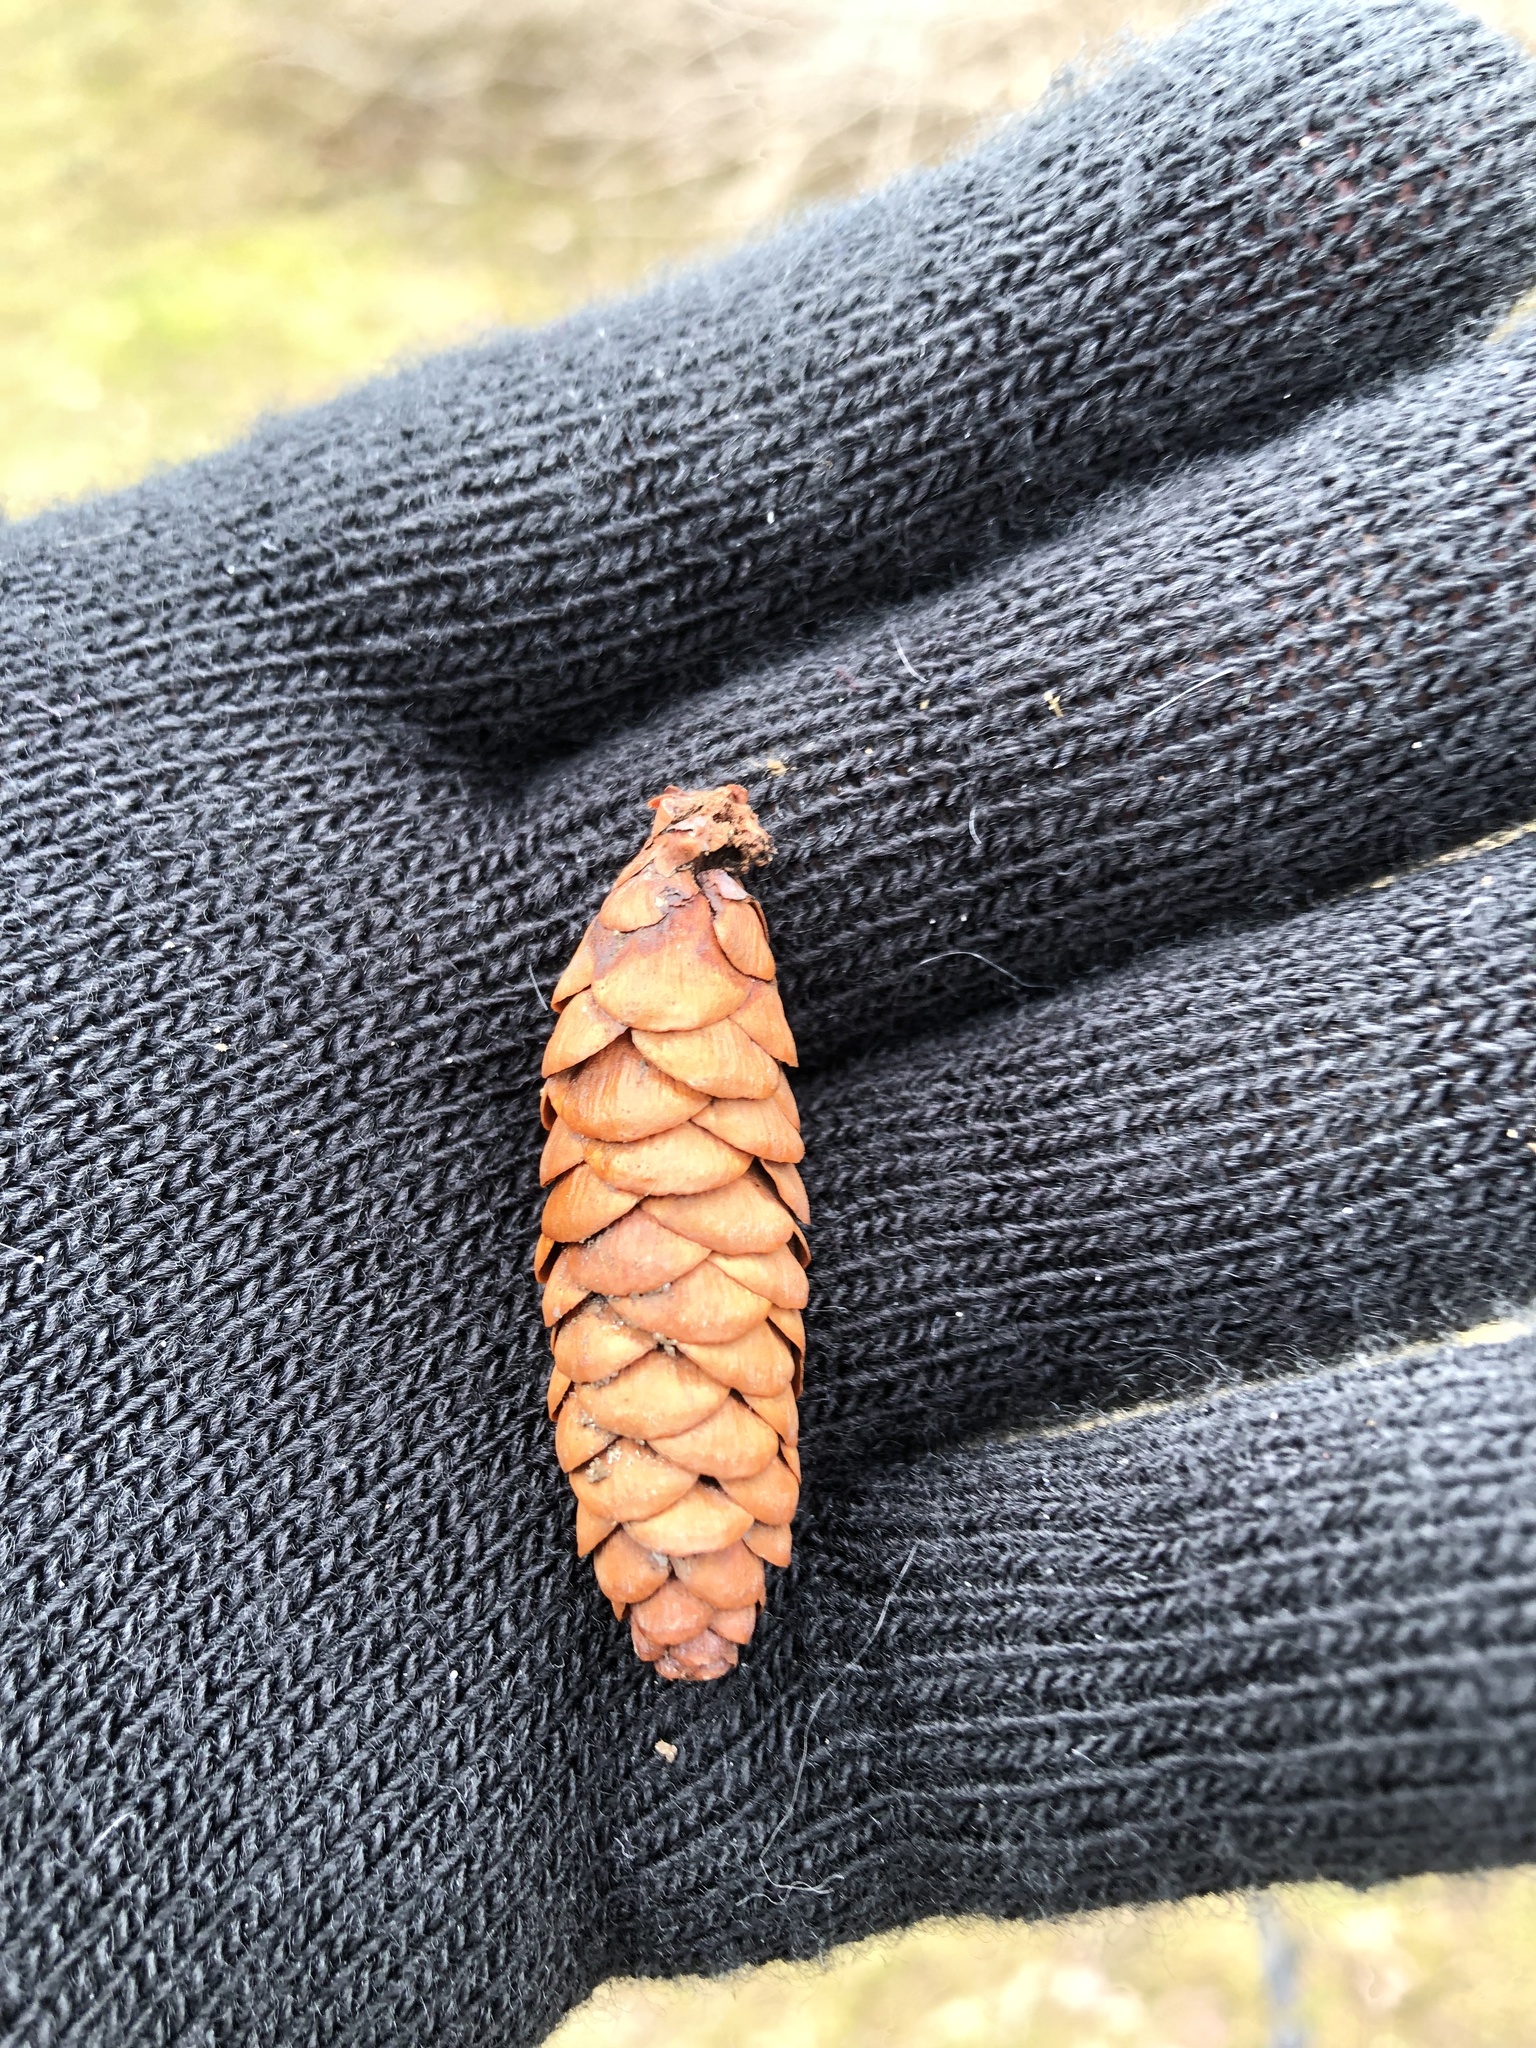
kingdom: Plantae
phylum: Tracheophyta
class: Pinopsida
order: Pinales
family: Pinaceae
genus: Picea
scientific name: Picea glauca
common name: White spruce
